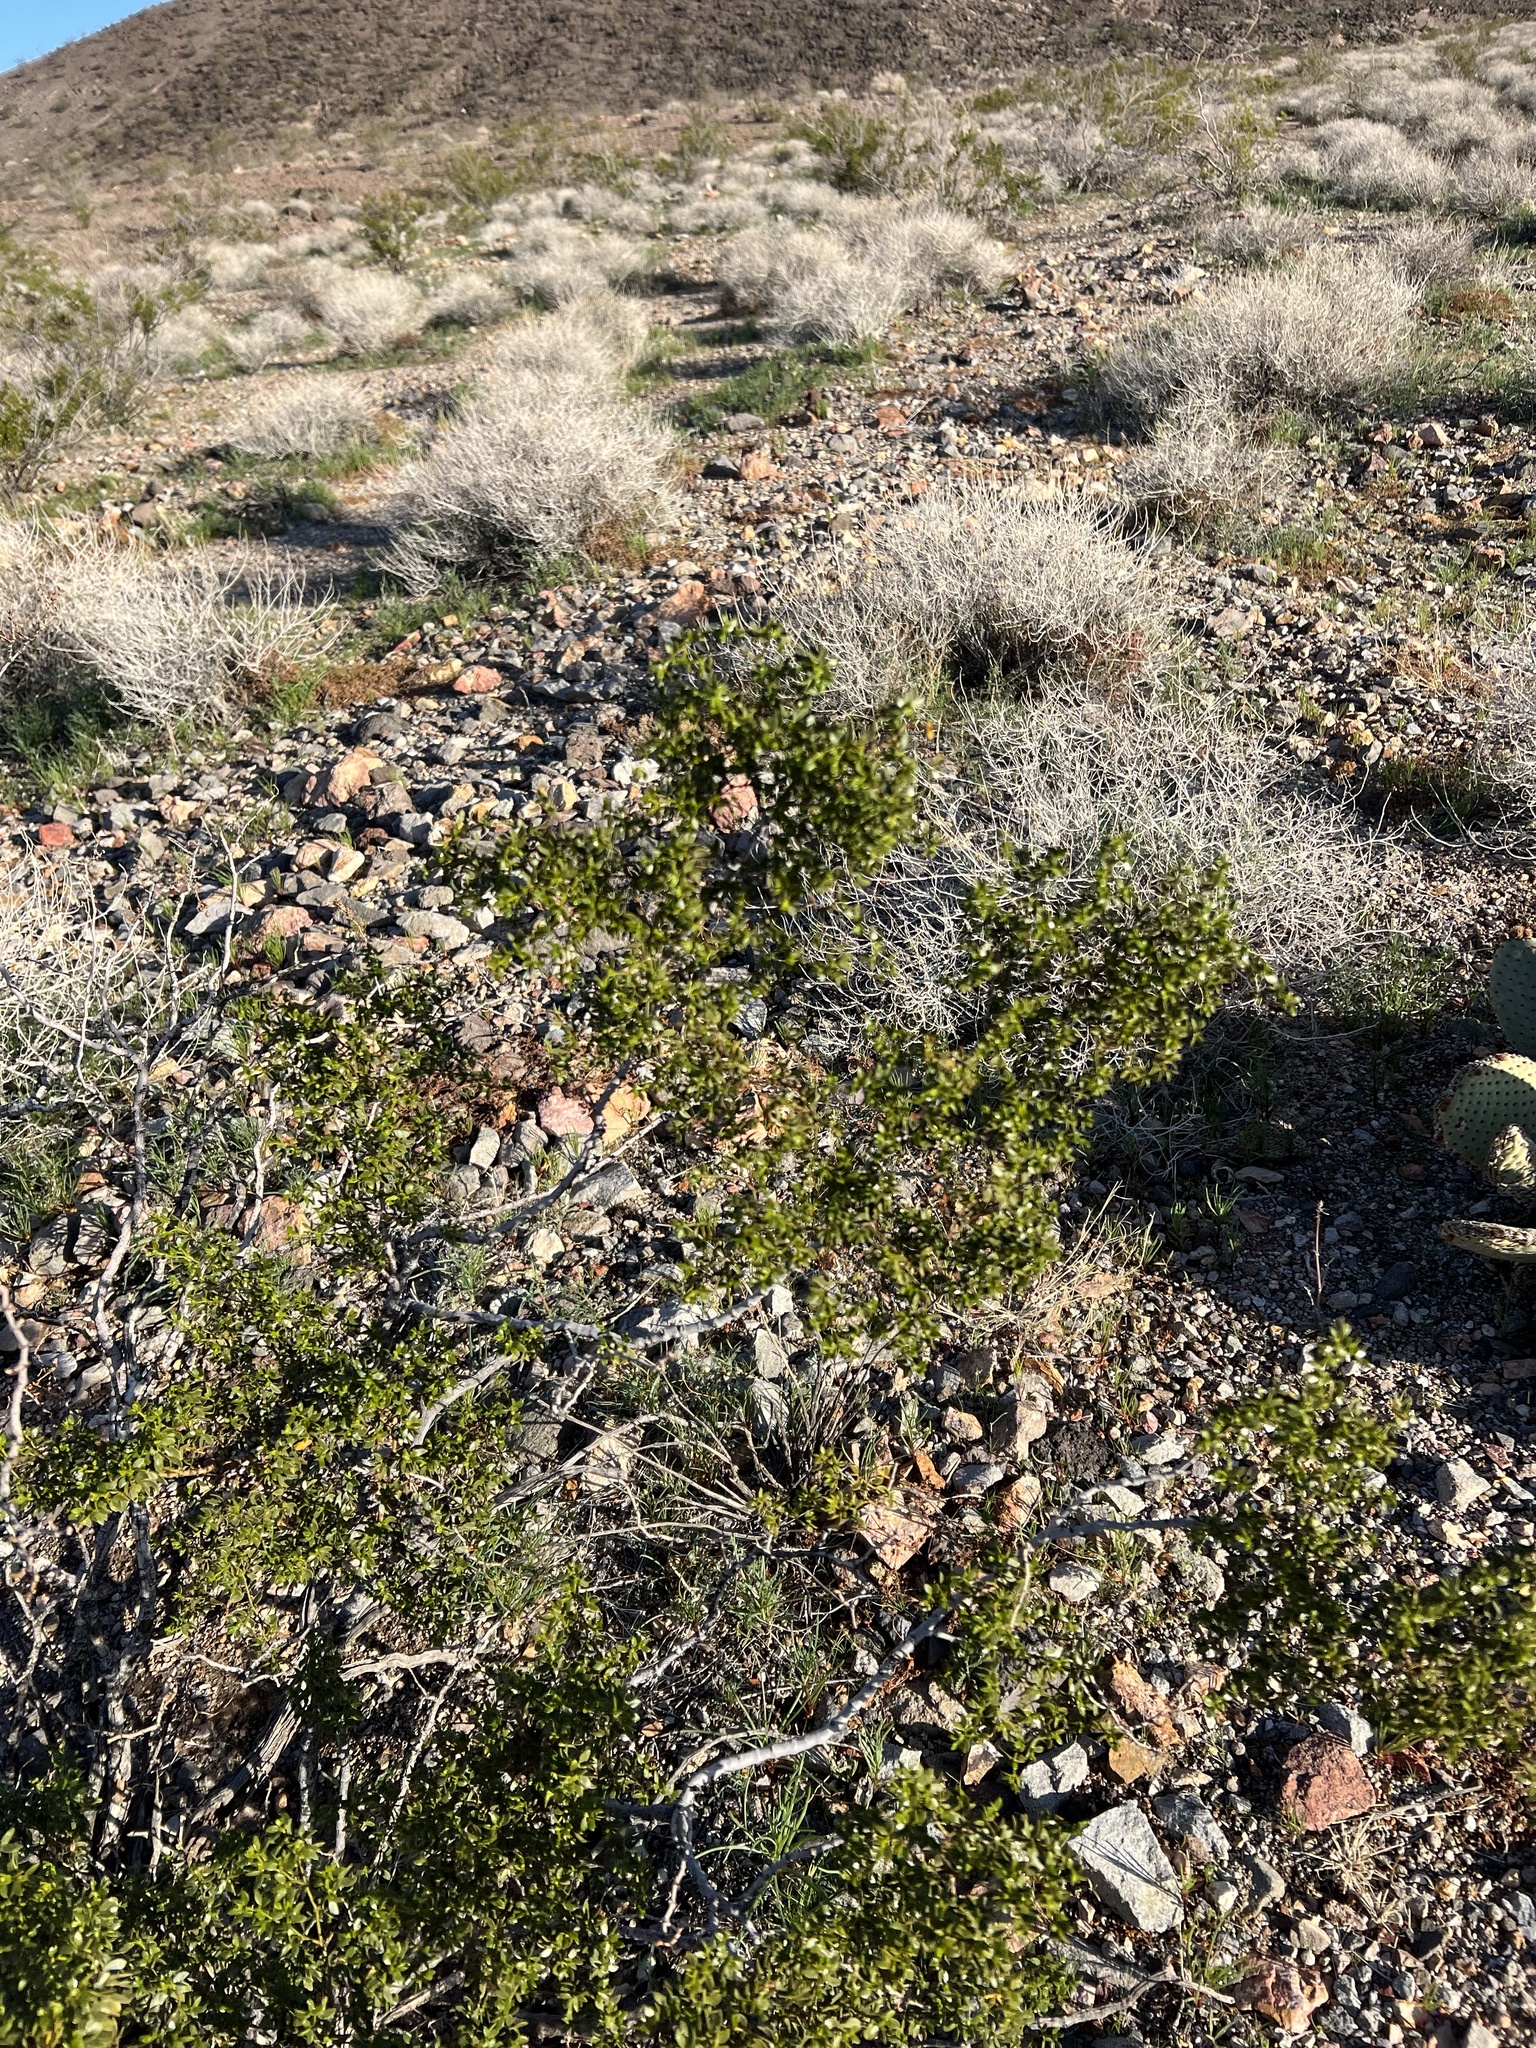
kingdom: Plantae
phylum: Tracheophyta
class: Magnoliopsida
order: Zygophyllales
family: Zygophyllaceae
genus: Larrea
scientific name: Larrea tridentata
